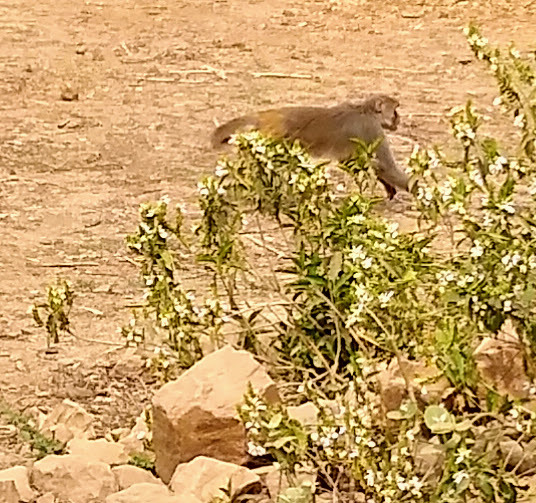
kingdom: Animalia
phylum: Chordata
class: Mammalia
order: Primates
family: Cercopithecidae
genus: Macaca
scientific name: Macaca mulatta
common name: Rhesus monkey
